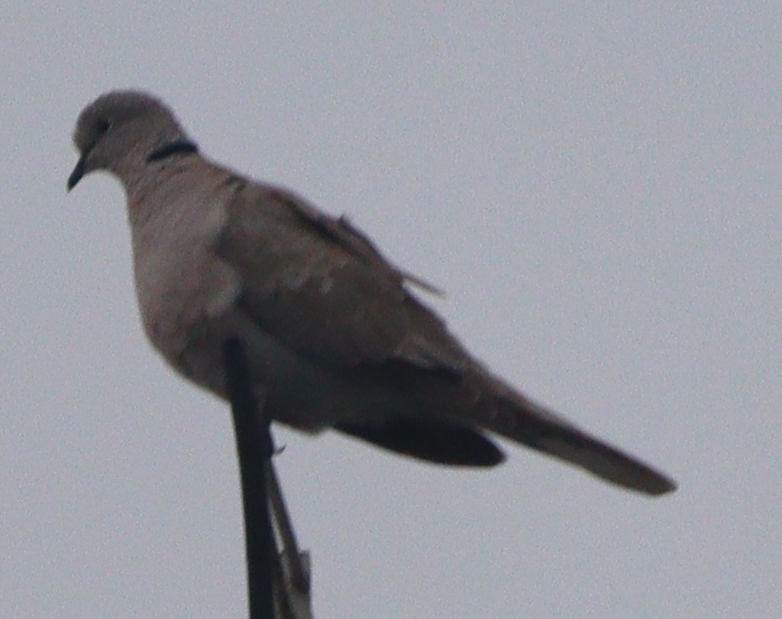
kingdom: Animalia
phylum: Chordata
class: Aves
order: Columbiformes
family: Columbidae
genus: Streptopelia
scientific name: Streptopelia decaocto
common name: Eurasian collared dove
